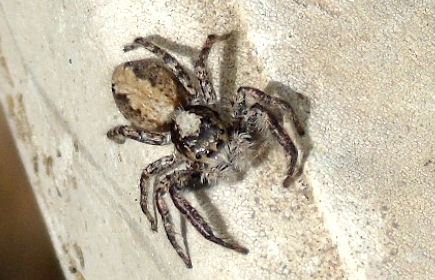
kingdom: Animalia
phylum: Arthropoda
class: Arachnida
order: Araneae
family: Salticidae
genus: Balmaceda
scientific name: Balmaceda
